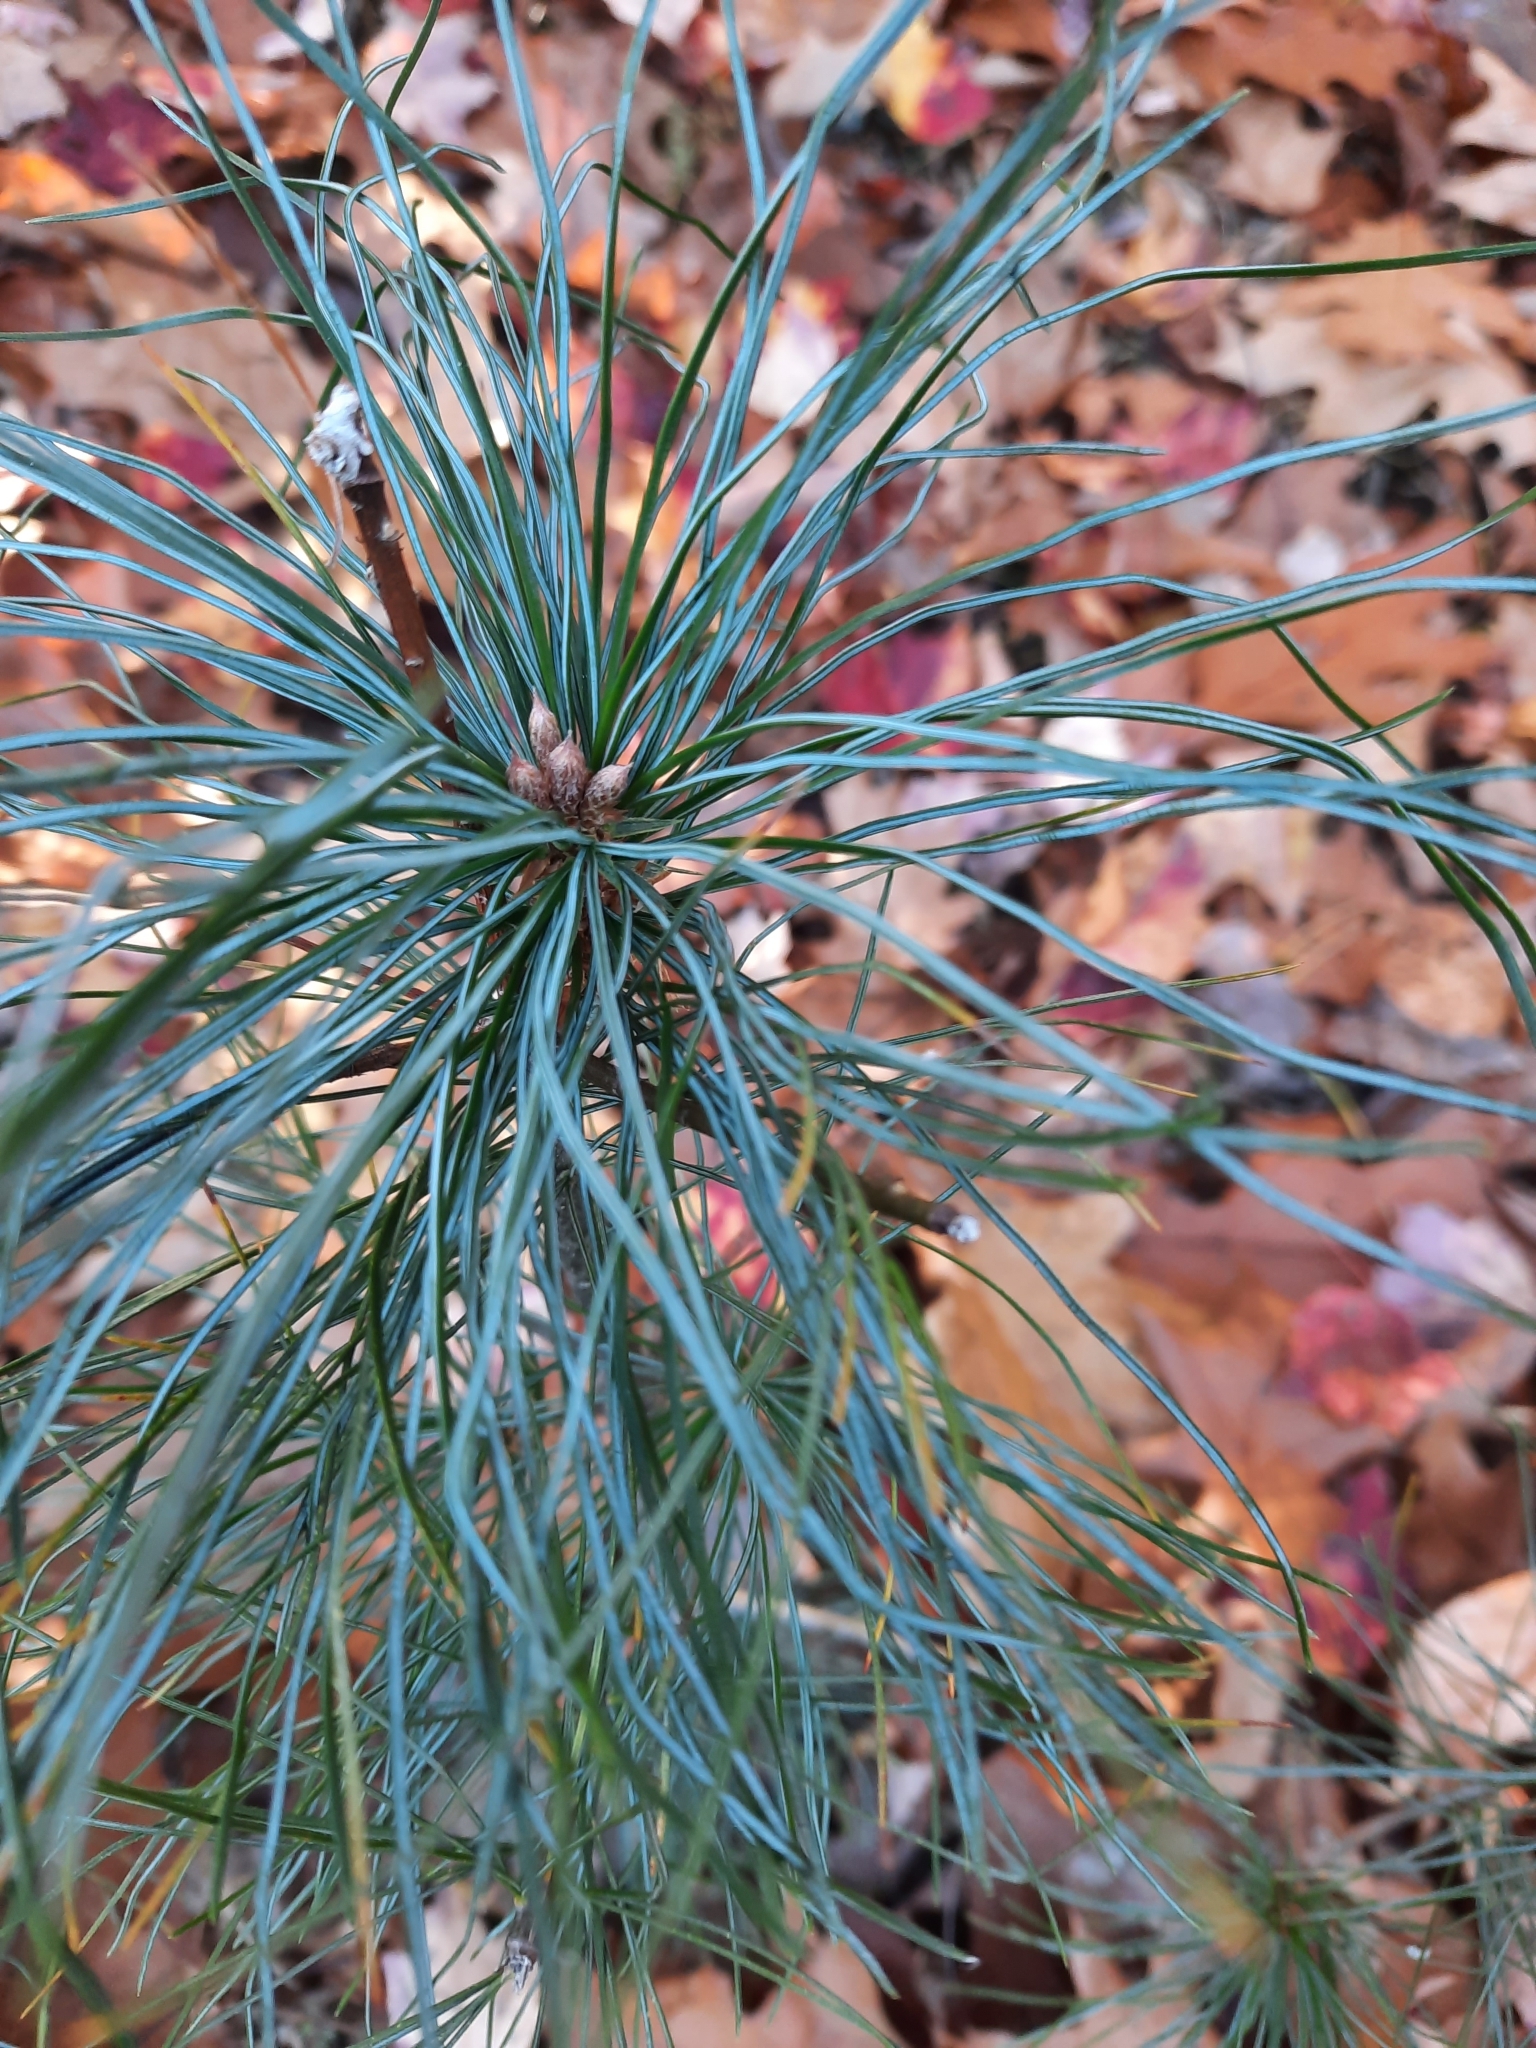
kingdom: Plantae
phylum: Tracheophyta
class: Pinopsida
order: Pinales
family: Pinaceae
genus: Pinus
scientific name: Pinus strobus
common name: Weymouth pine
